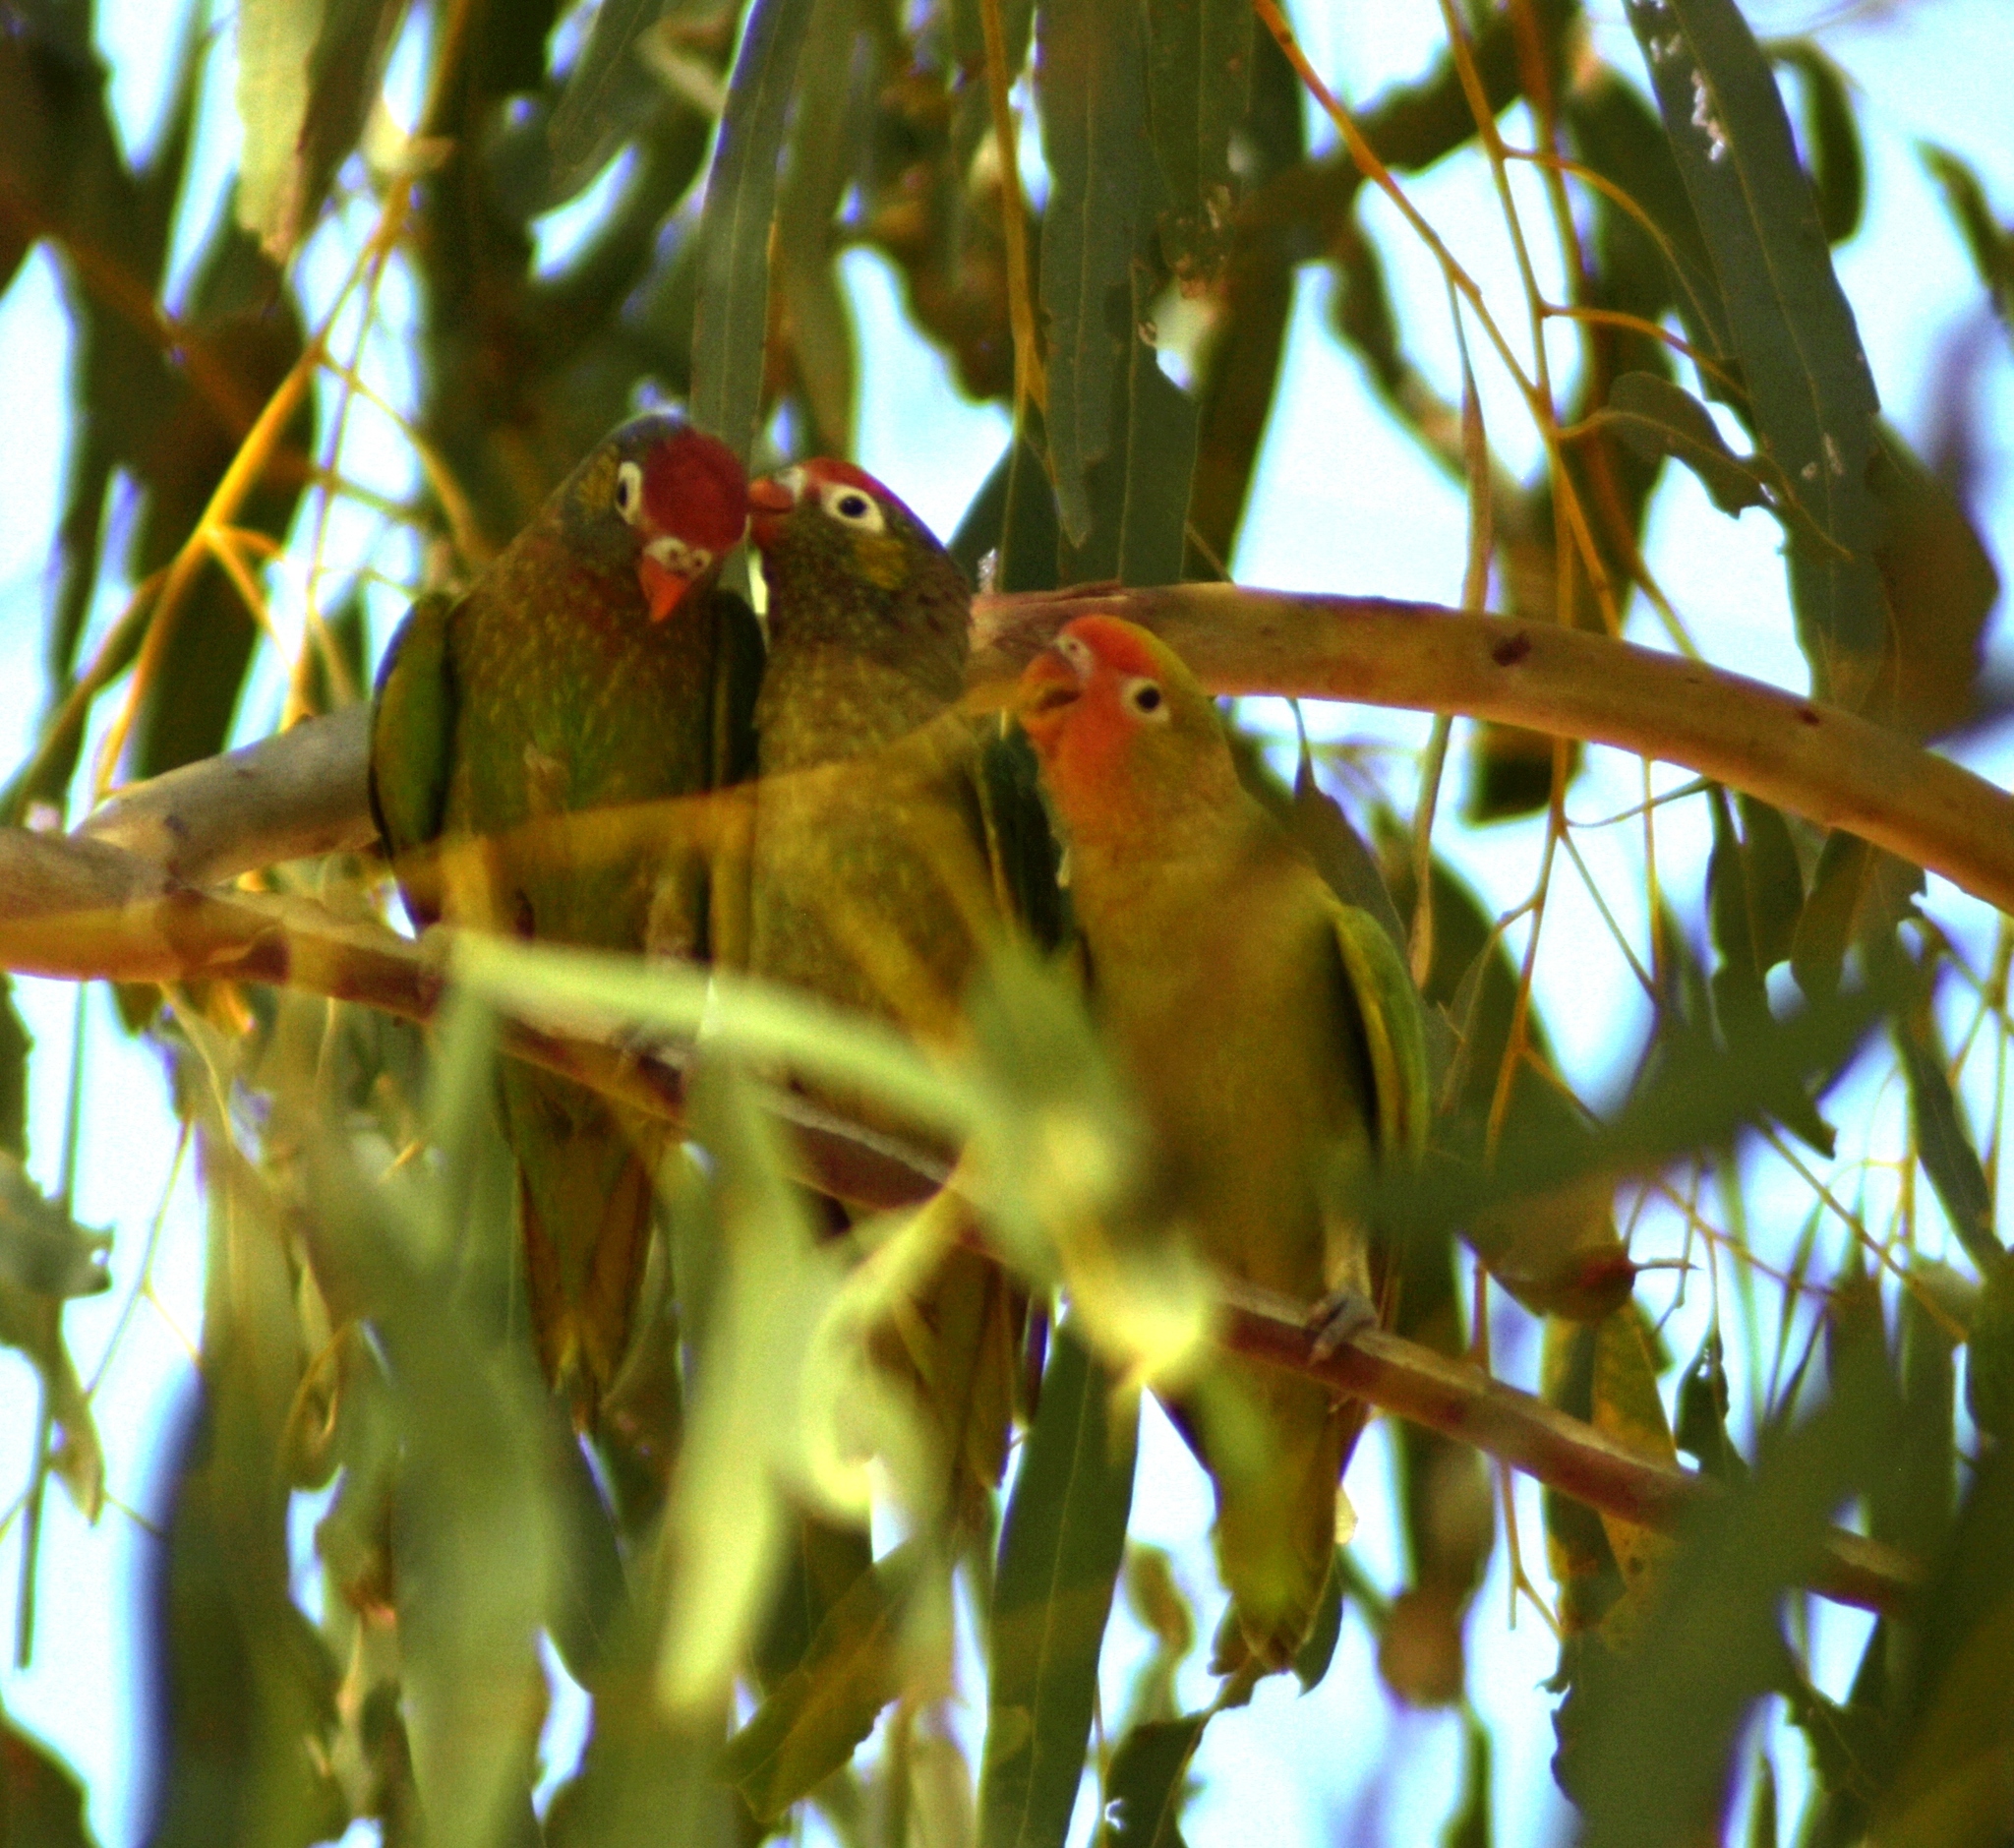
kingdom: Animalia
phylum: Chordata
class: Aves
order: Psittaciformes
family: Psittacidae
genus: Psitteuteles
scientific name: Psitteuteles versicolor
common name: Varied lorikeet
